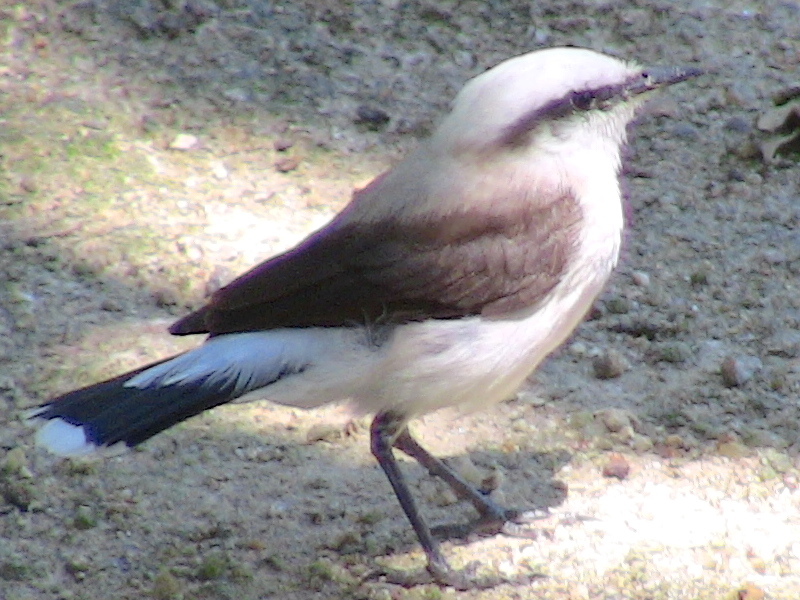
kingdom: Animalia
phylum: Chordata
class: Aves
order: Passeriformes
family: Tyrannidae
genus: Fluvicola
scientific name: Fluvicola nengeta
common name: Masked water tyrant
